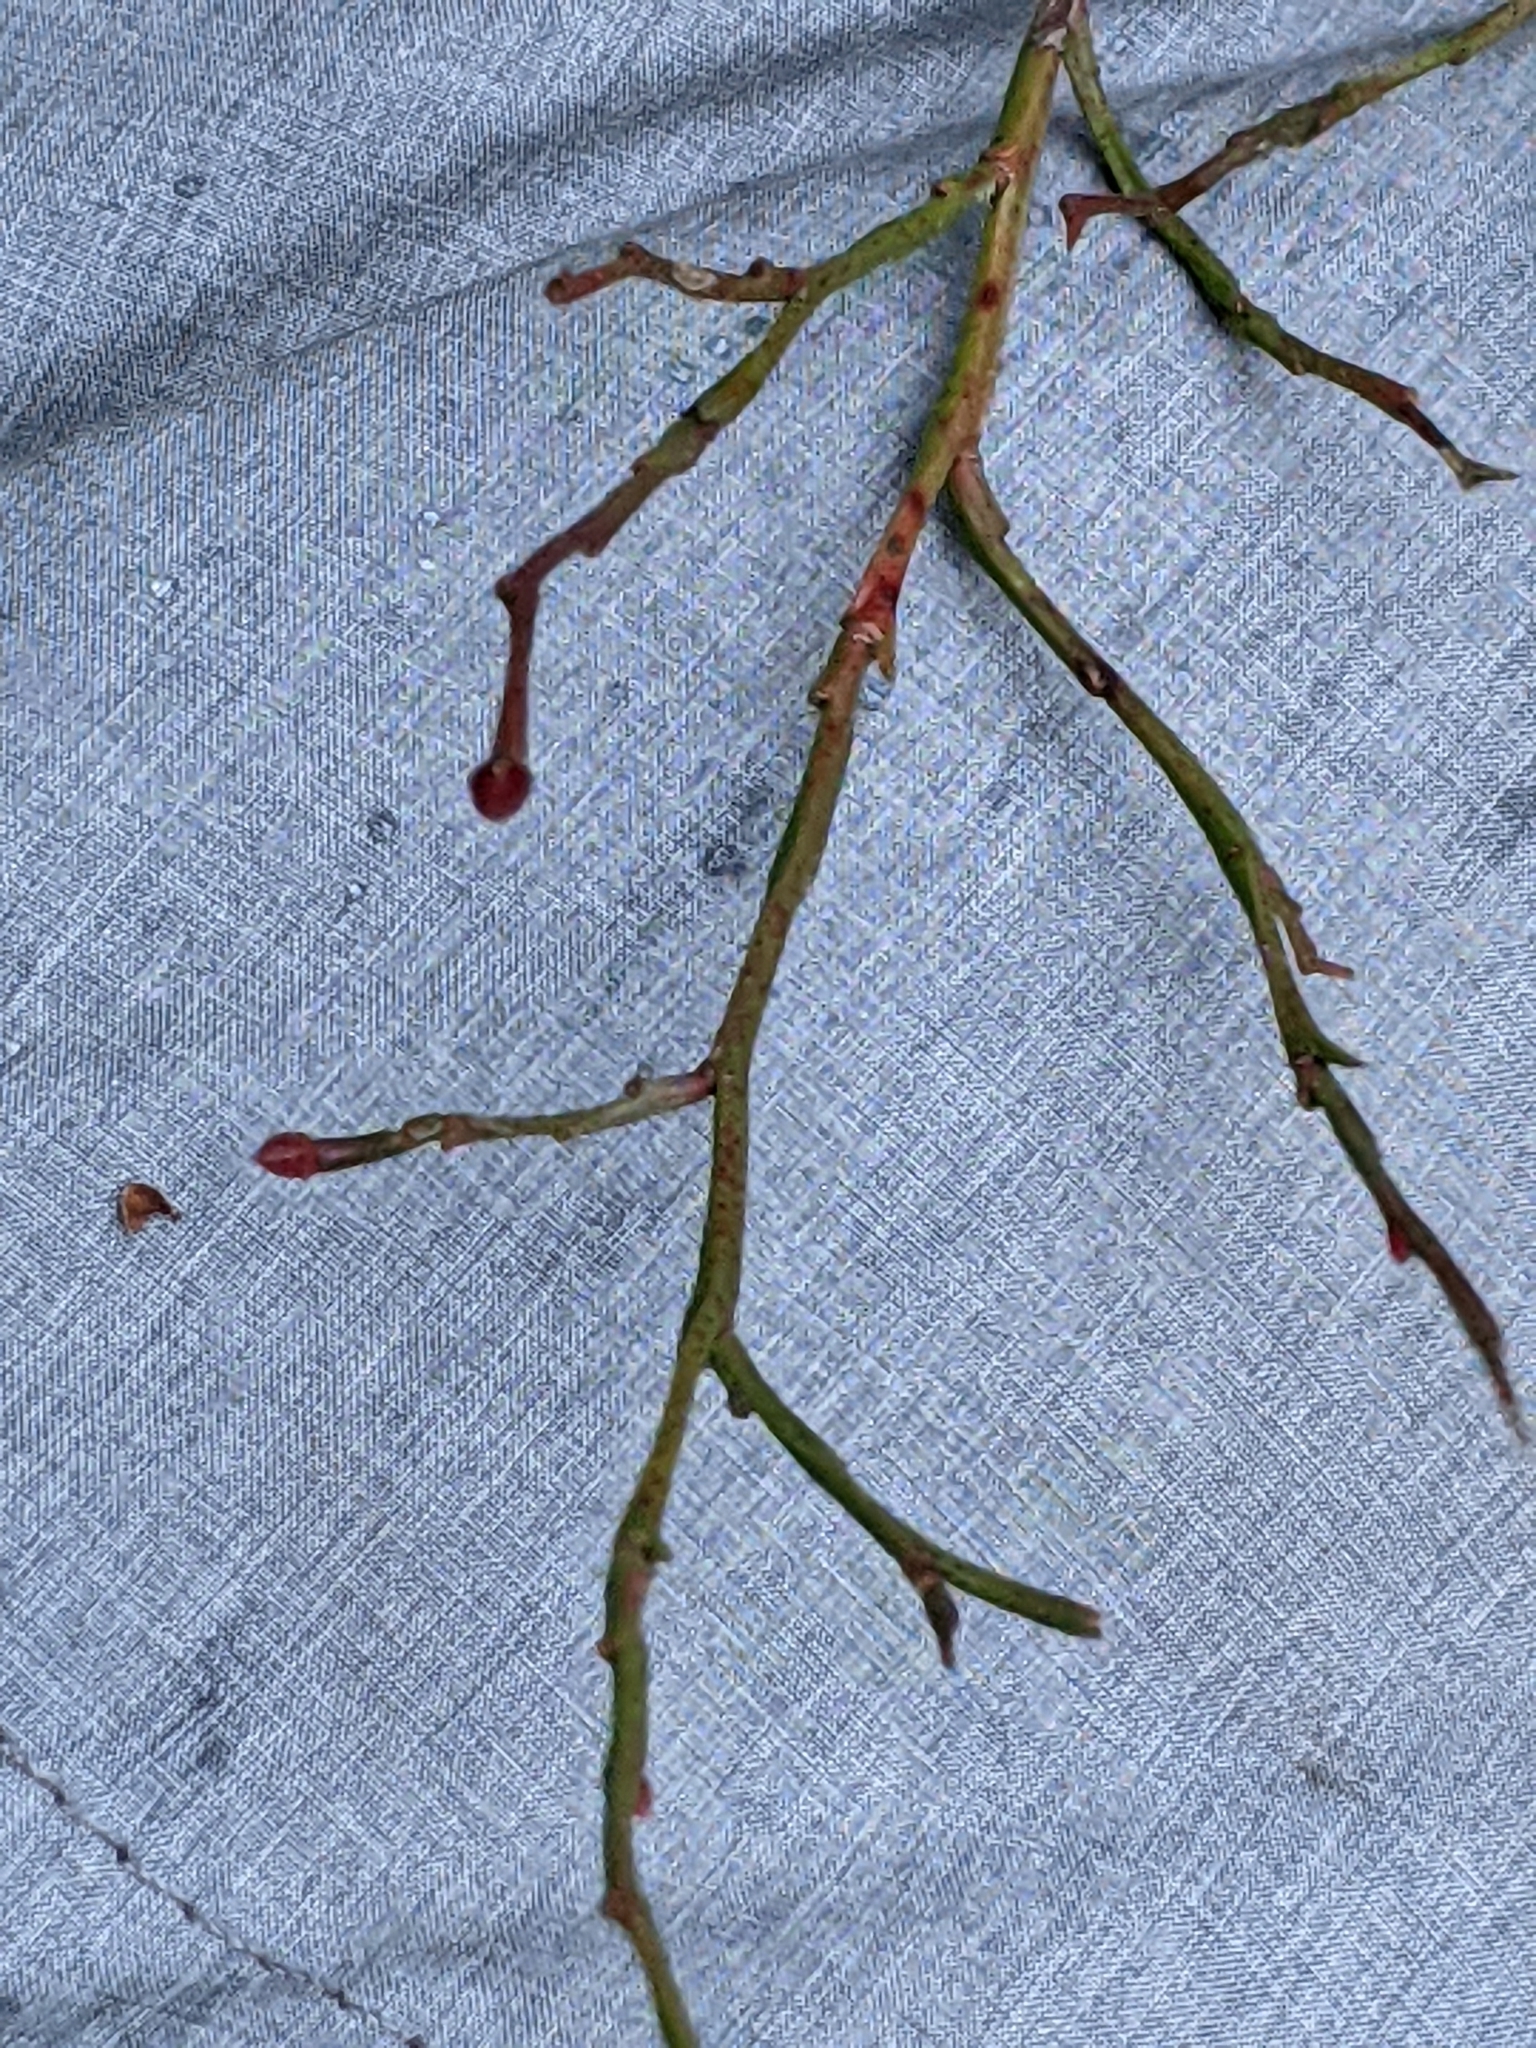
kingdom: Plantae
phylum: Tracheophyta
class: Magnoliopsida
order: Ericales
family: Ericaceae
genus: Vaccinium
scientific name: Vaccinium parvifolium
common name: Red-huckleberry
